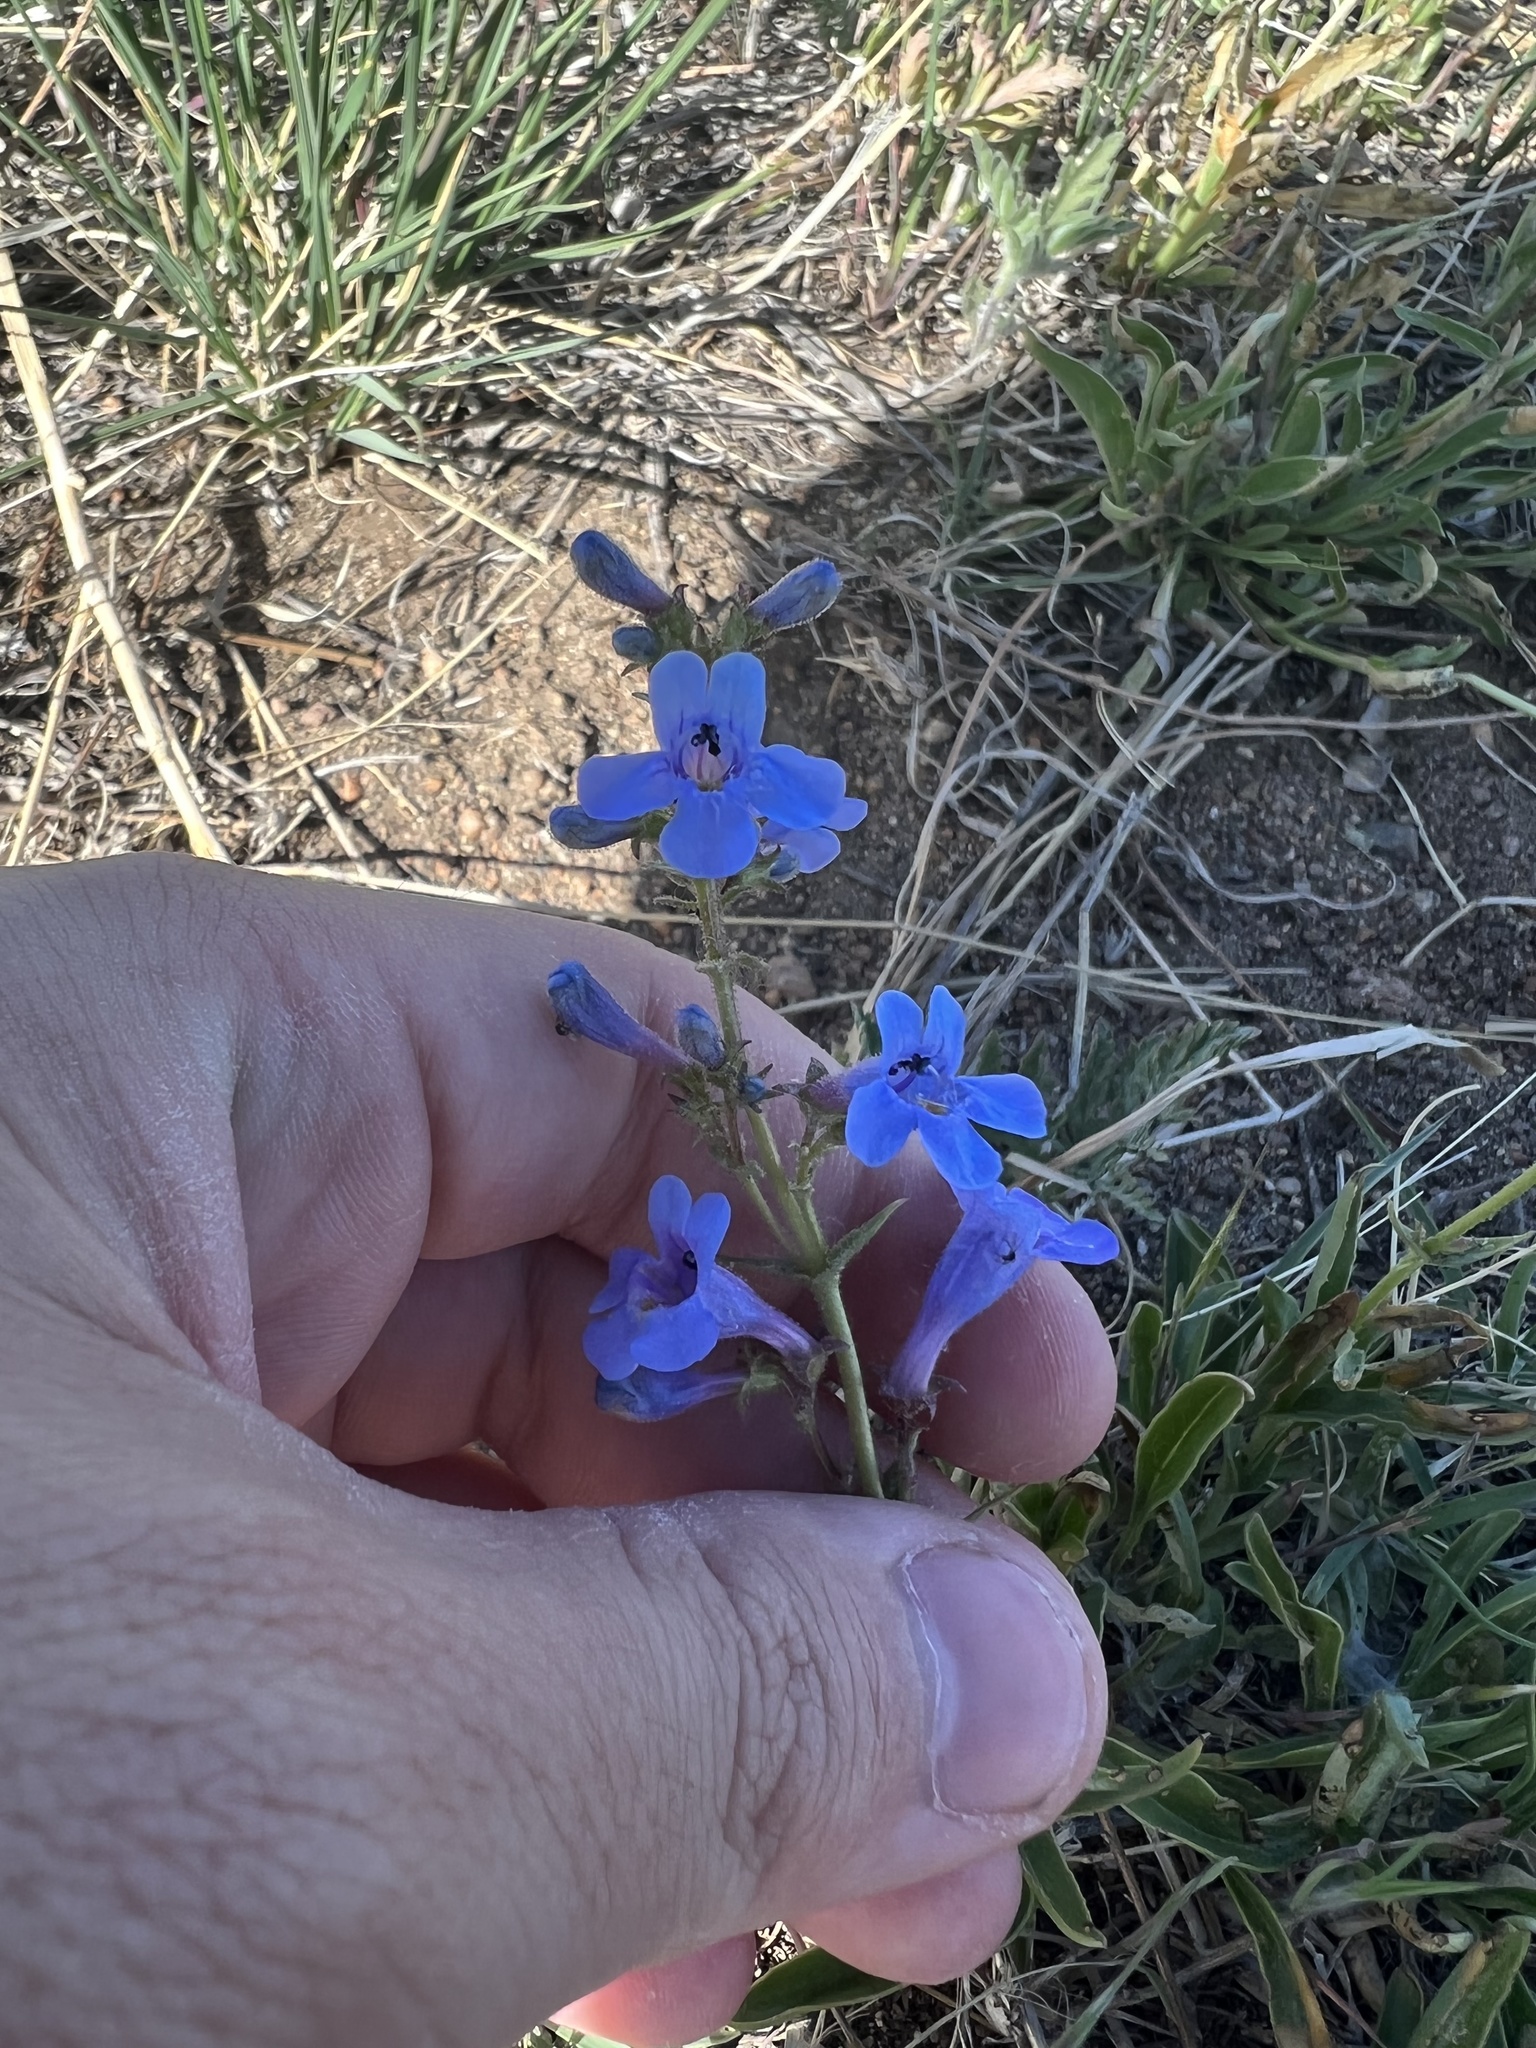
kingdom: Plantae
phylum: Tracheophyta
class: Magnoliopsida
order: Lamiales
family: Plantaginaceae
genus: Penstemon
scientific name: Penstemon virens
